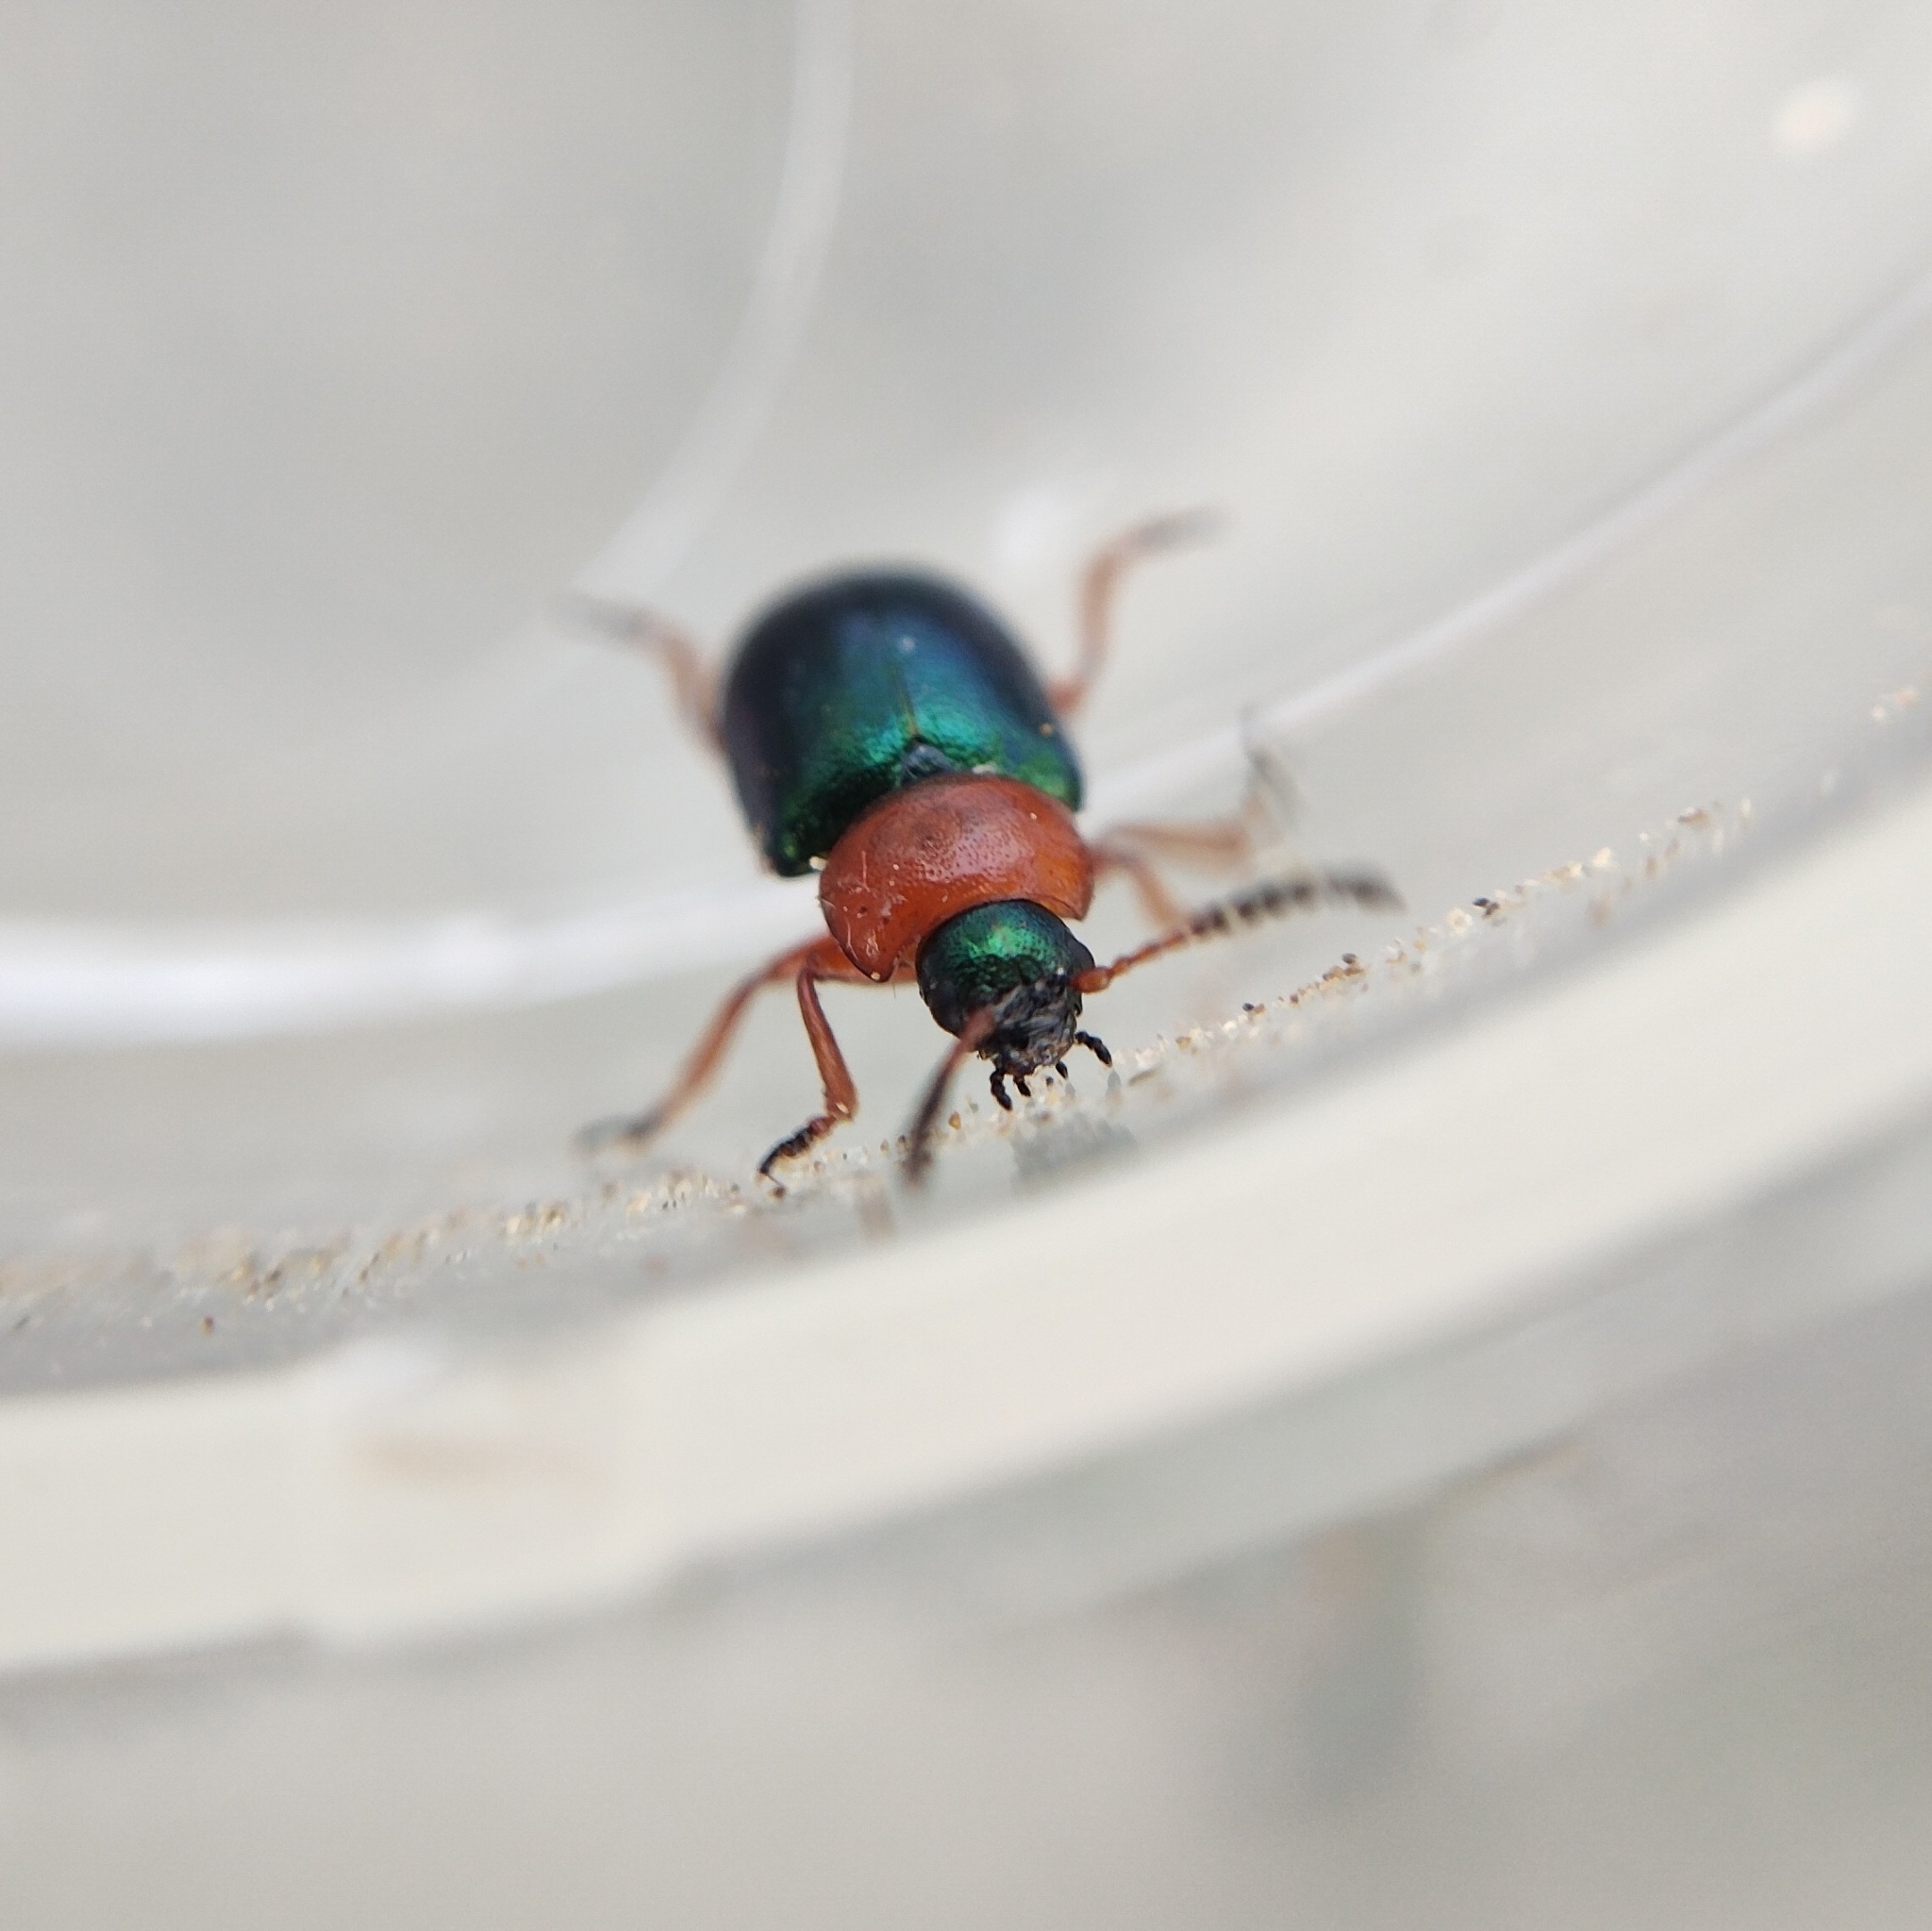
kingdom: Animalia
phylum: Arthropoda
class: Insecta
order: Coleoptera
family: Chrysomelidae
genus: Gastrophysa
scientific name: Gastrophysa polygoni
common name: Knotweed leaf beetle
